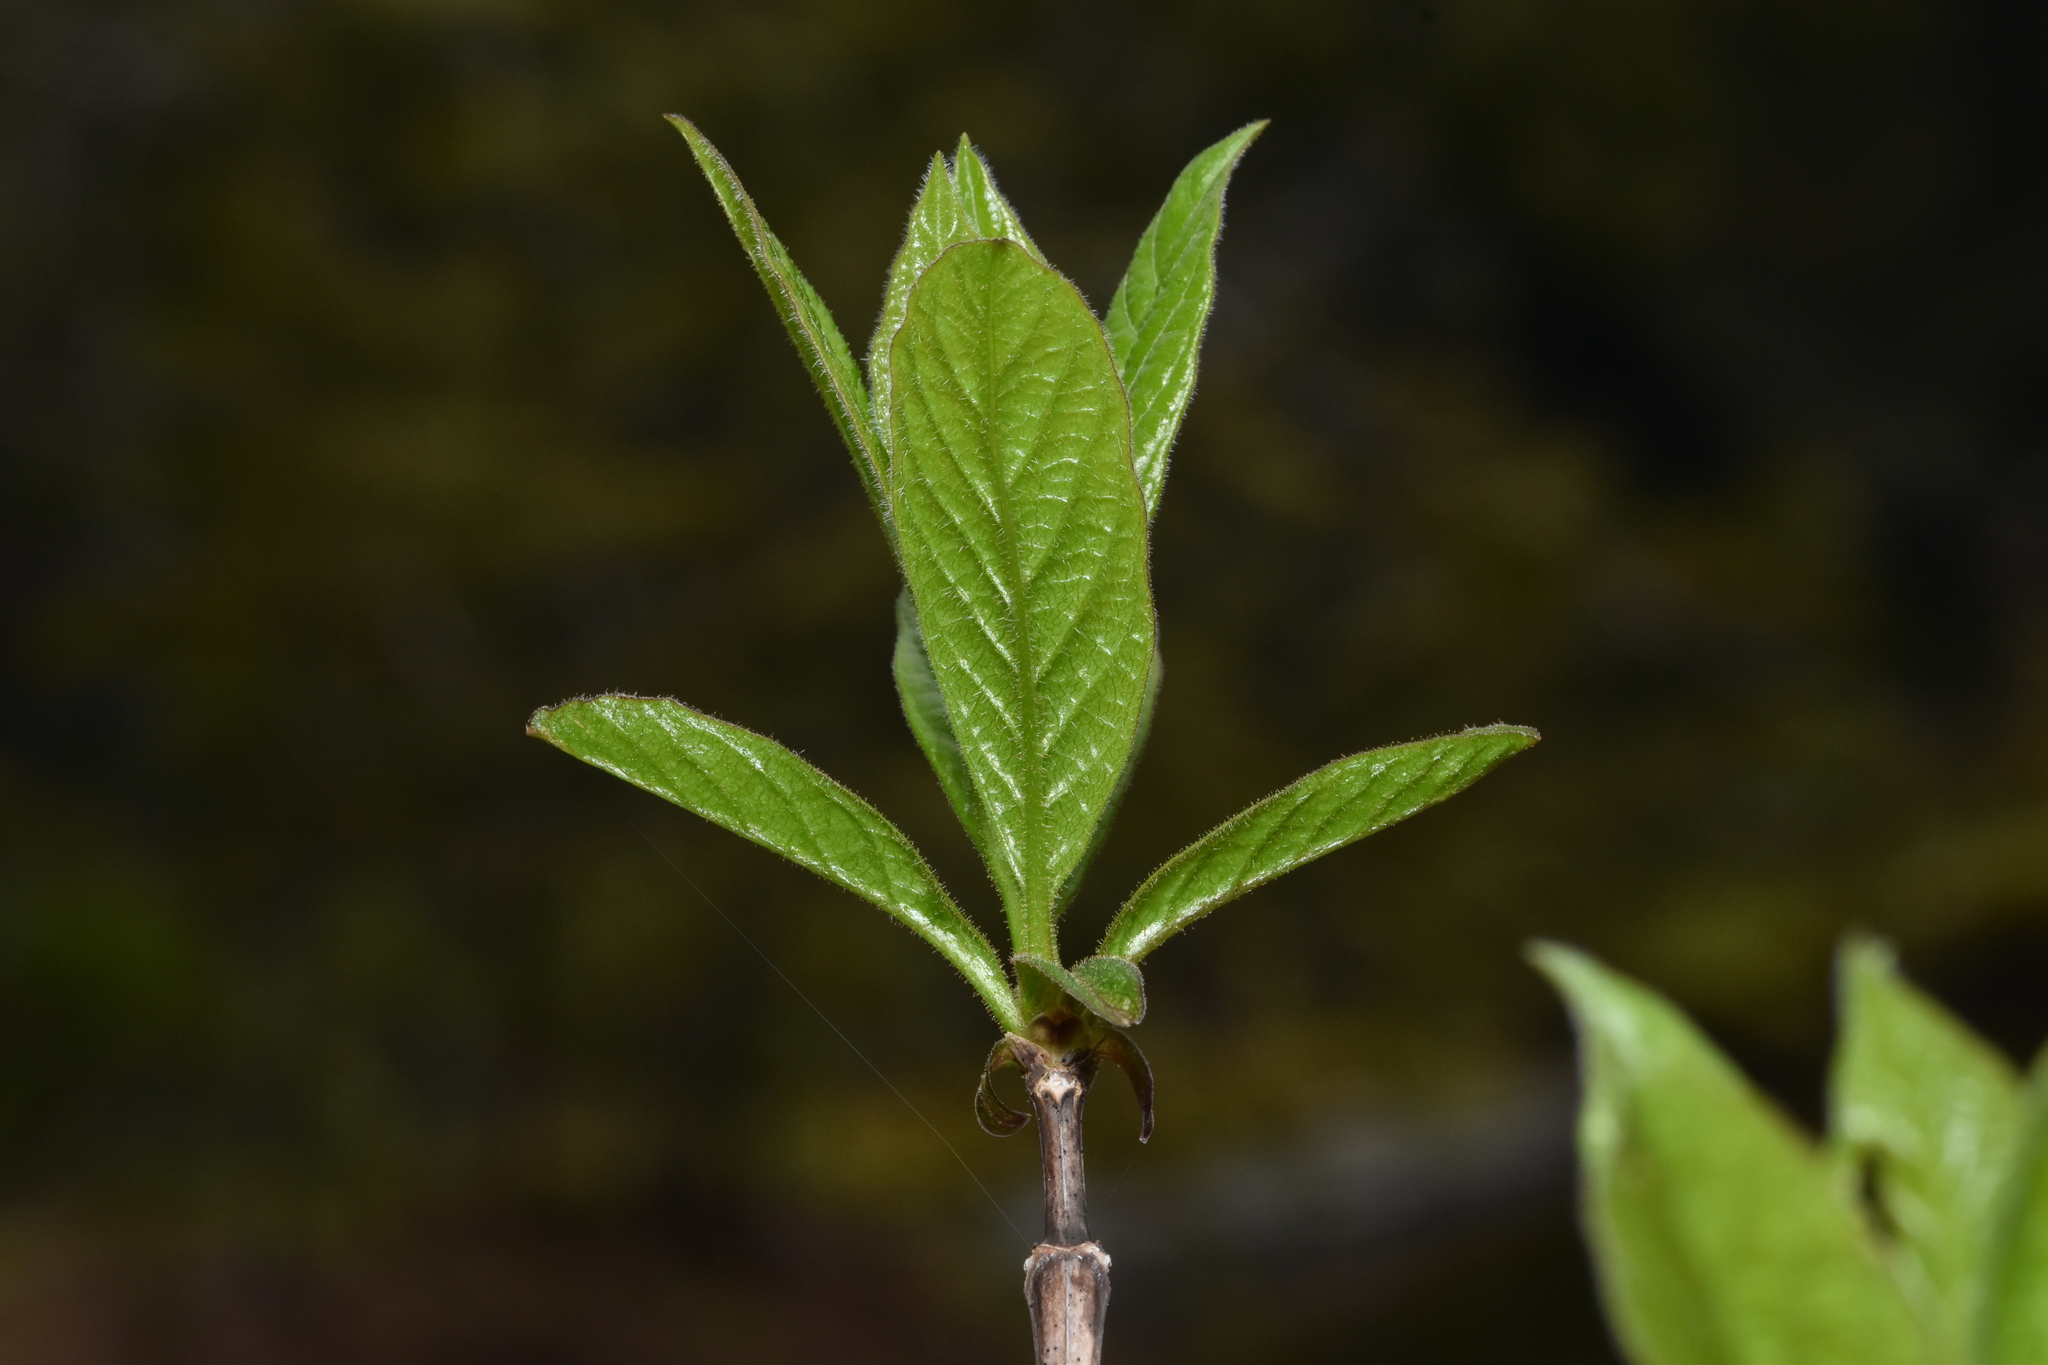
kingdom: Plantae
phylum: Tracheophyta
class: Magnoliopsida
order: Dipsacales
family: Caprifoliaceae
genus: Lonicera
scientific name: Lonicera involucrata
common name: Californian honeysuckle
